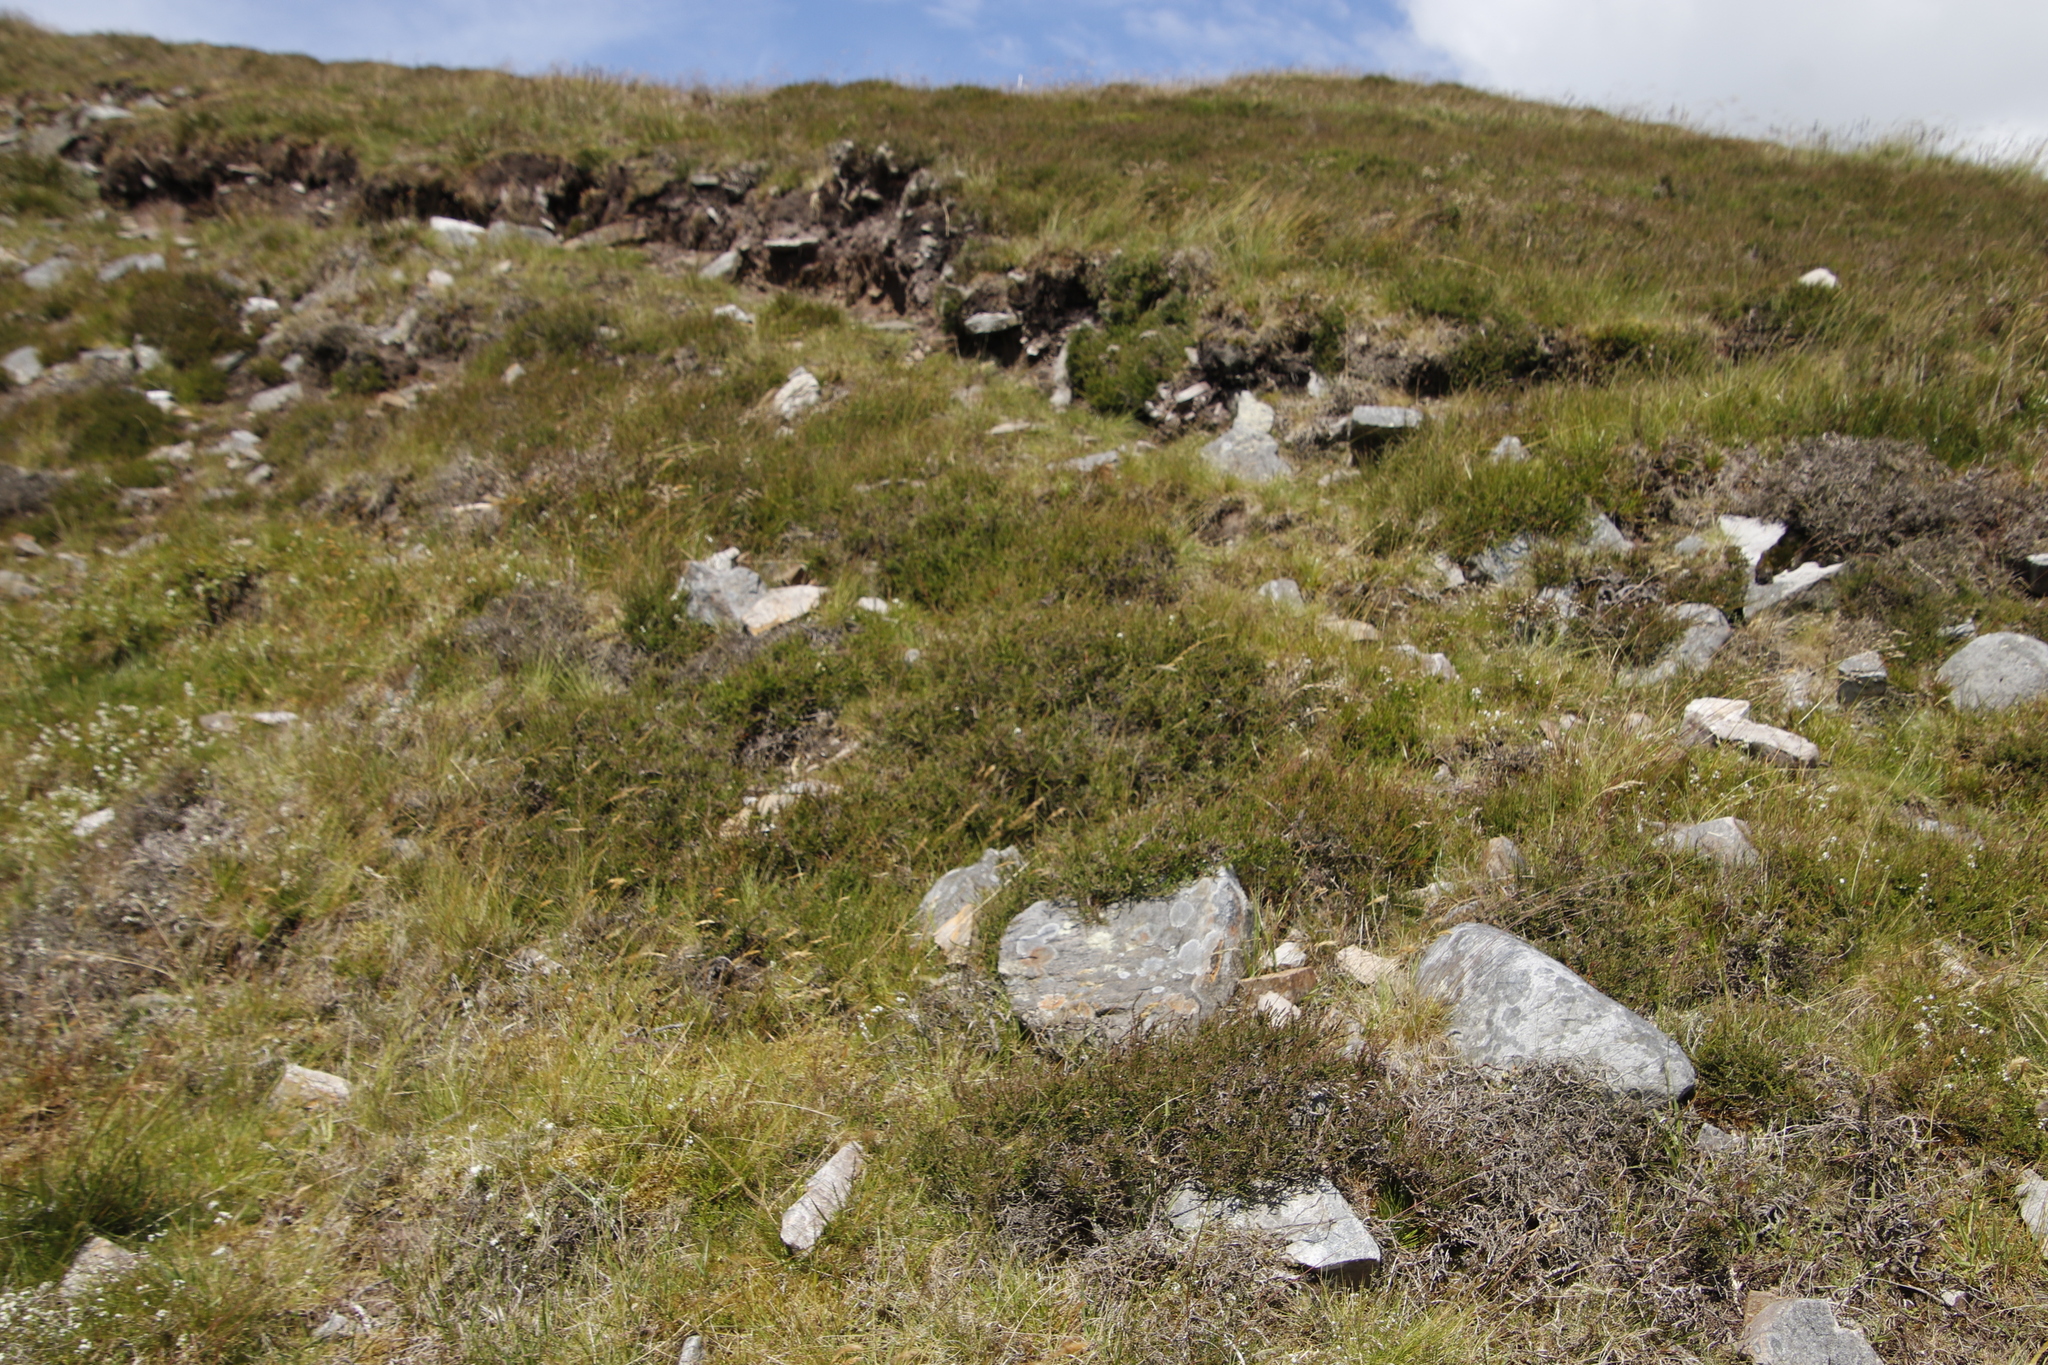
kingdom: Plantae
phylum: Tracheophyta
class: Magnoliopsida
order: Ericales
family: Ericaceae
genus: Calluna
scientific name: Calluna vulgaris
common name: Heather
